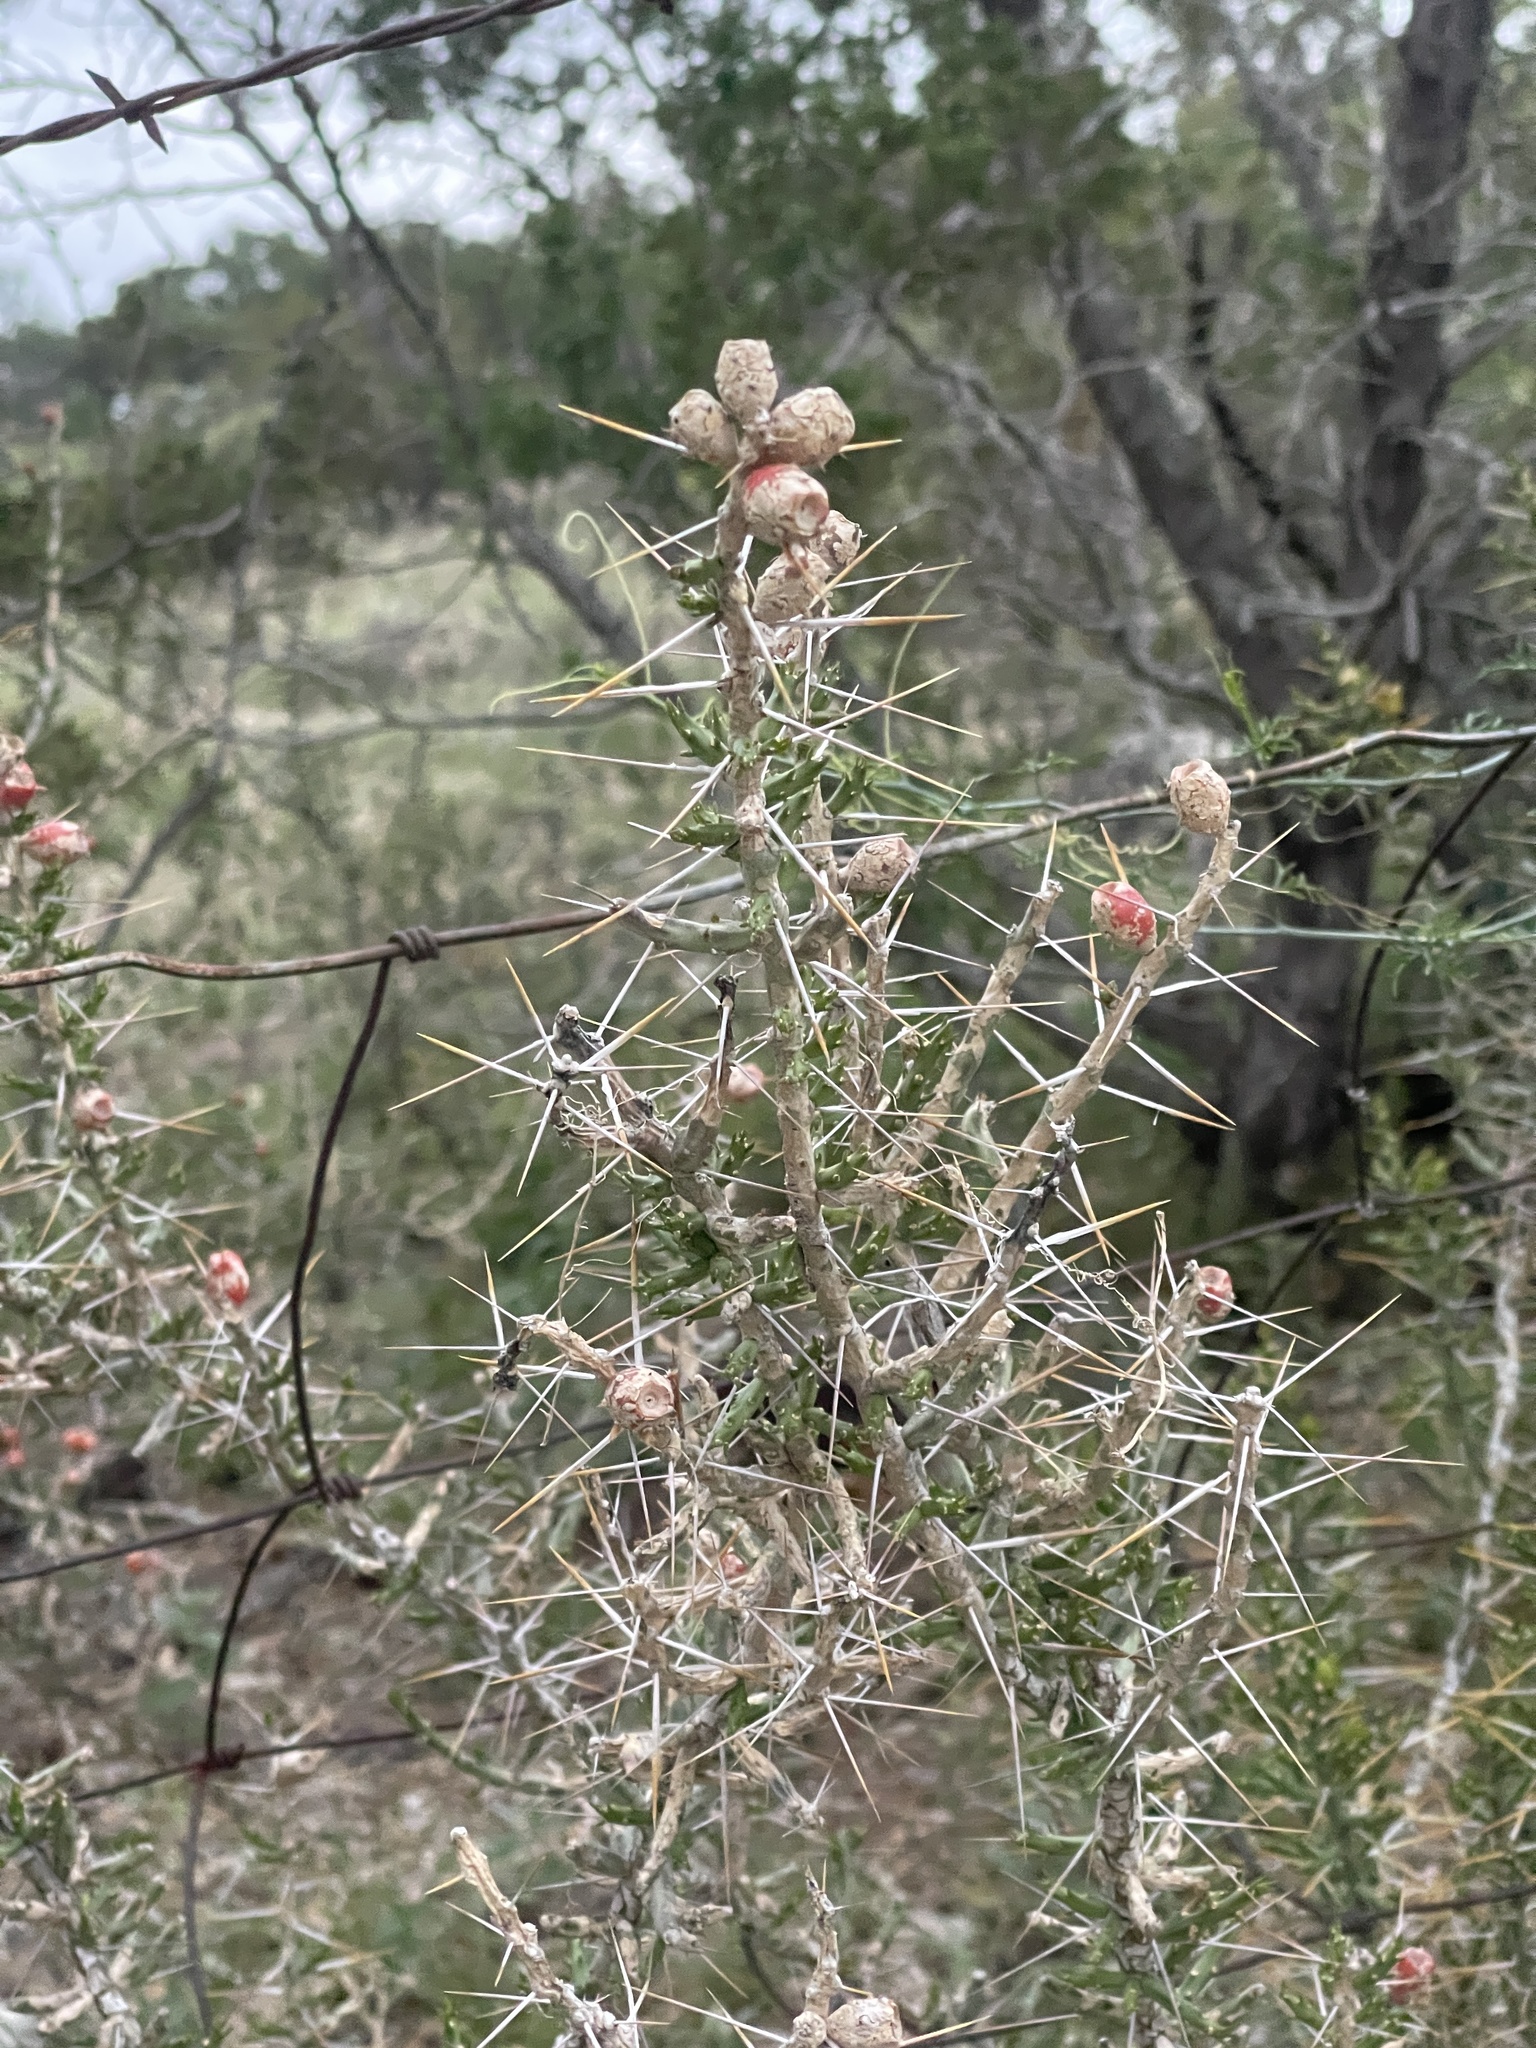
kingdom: Plantae
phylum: Tracheophyta
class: Magnoliopsida
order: Caryophyllales
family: Cactaceae
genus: Cylindropuntia
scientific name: Cylindropuntia leptocaulis
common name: Christmas cactus
